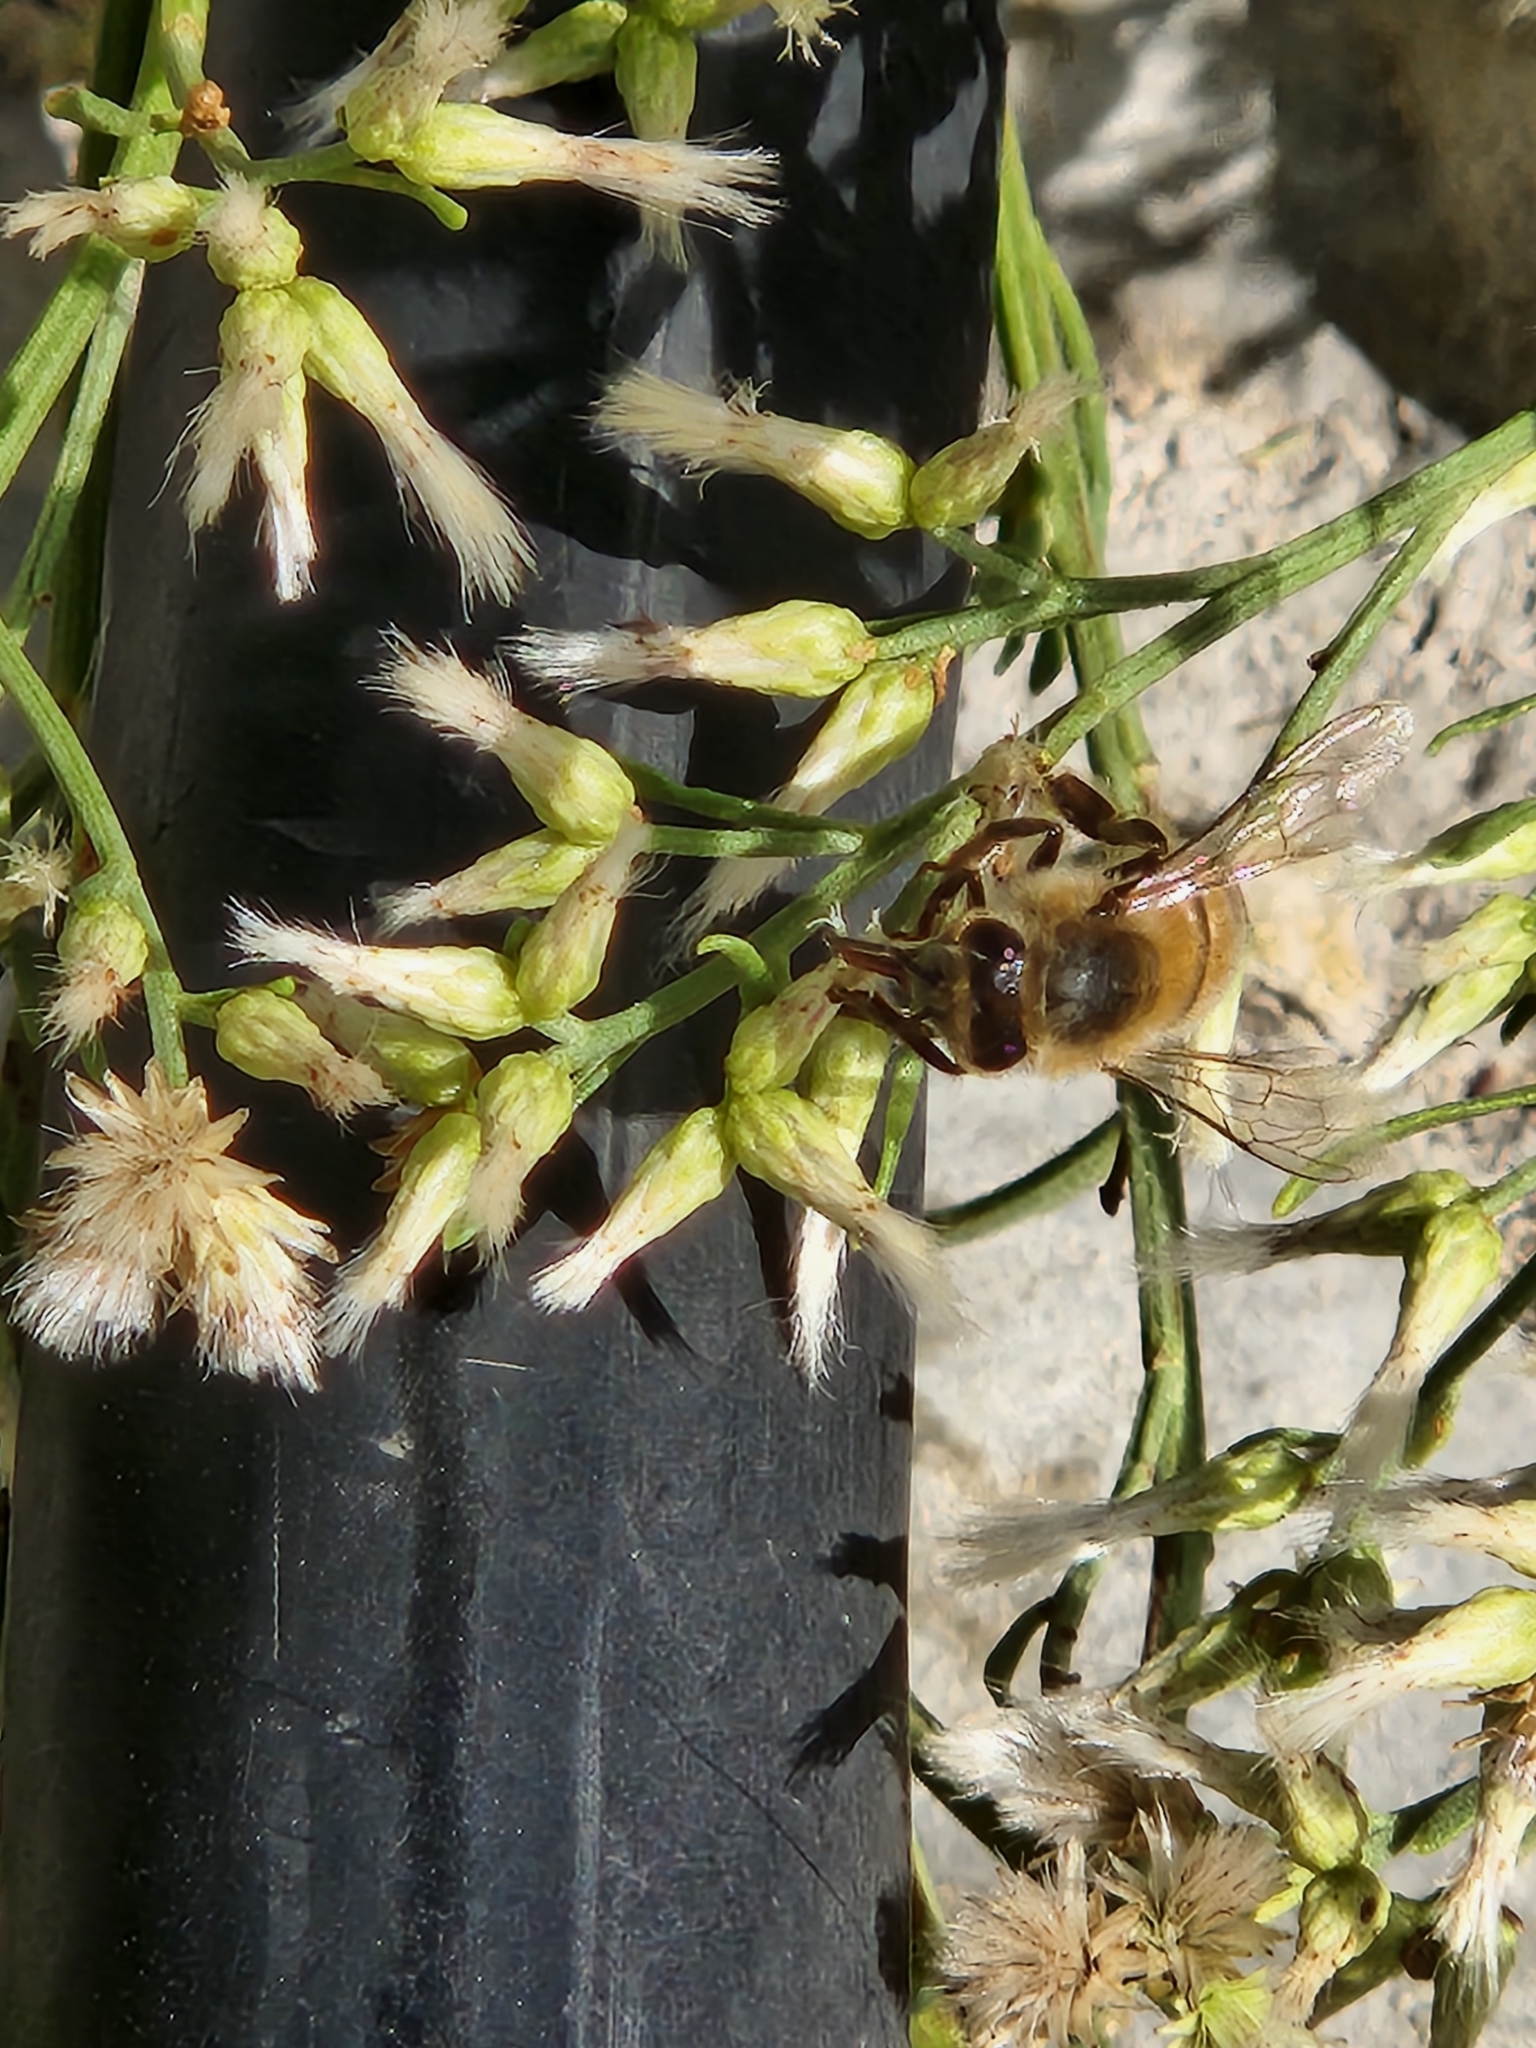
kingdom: Animalia
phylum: Arthropoda
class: Insecta
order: Hymenoptera
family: Apidae
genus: Apis
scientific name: Apis mellifera
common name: Honey bee
